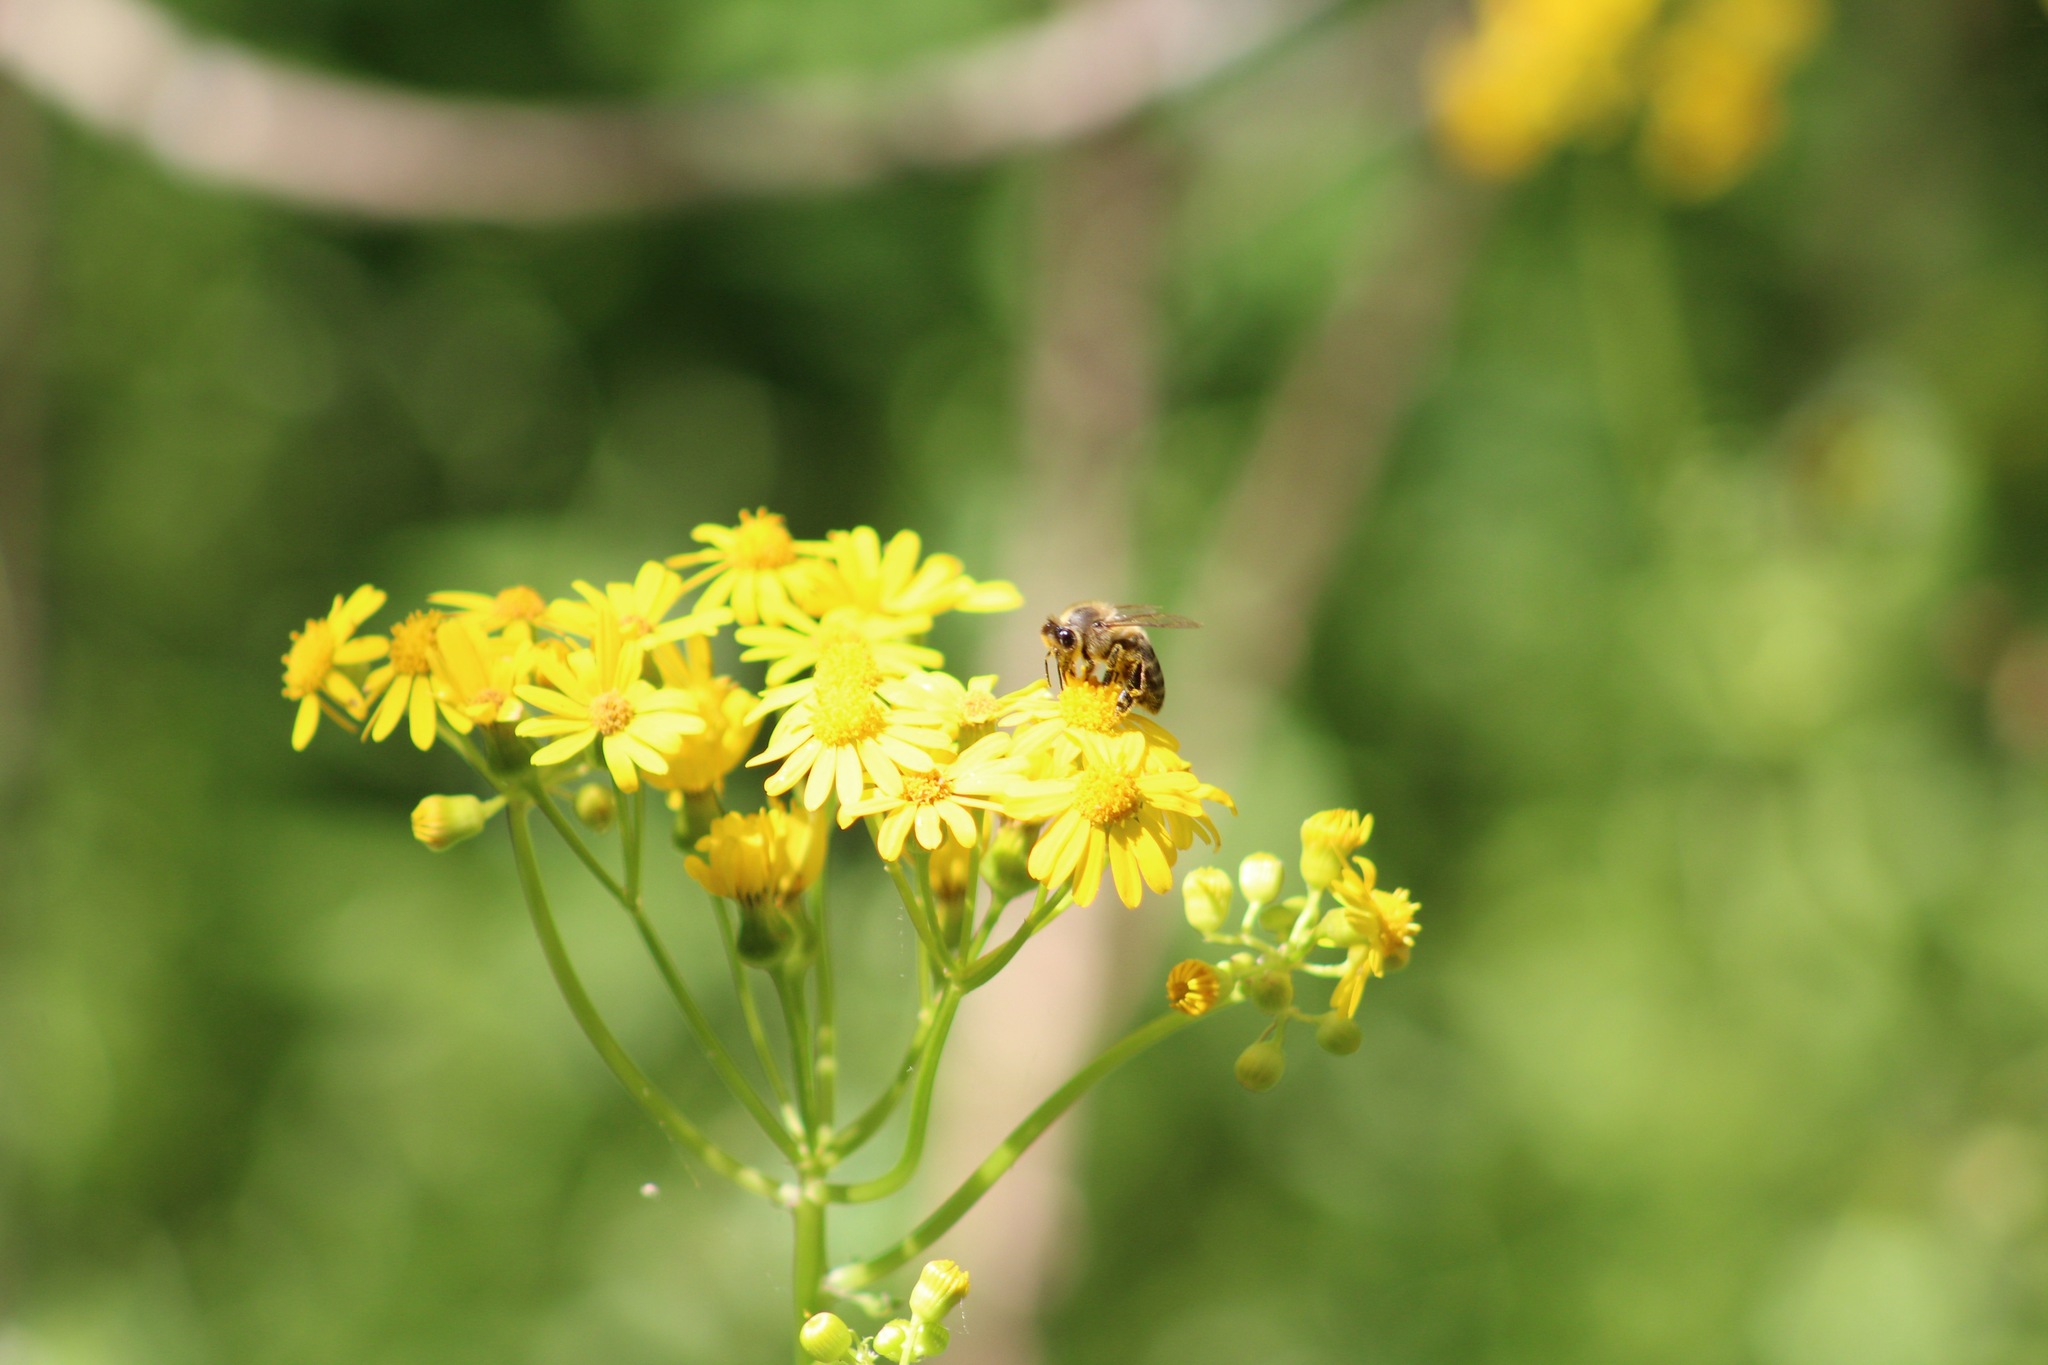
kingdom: Animalia
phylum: Arthropoda
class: Insecta
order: Hymenoptera
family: Apidae
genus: Apis
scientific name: Apis mellifera
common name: Honey bee
